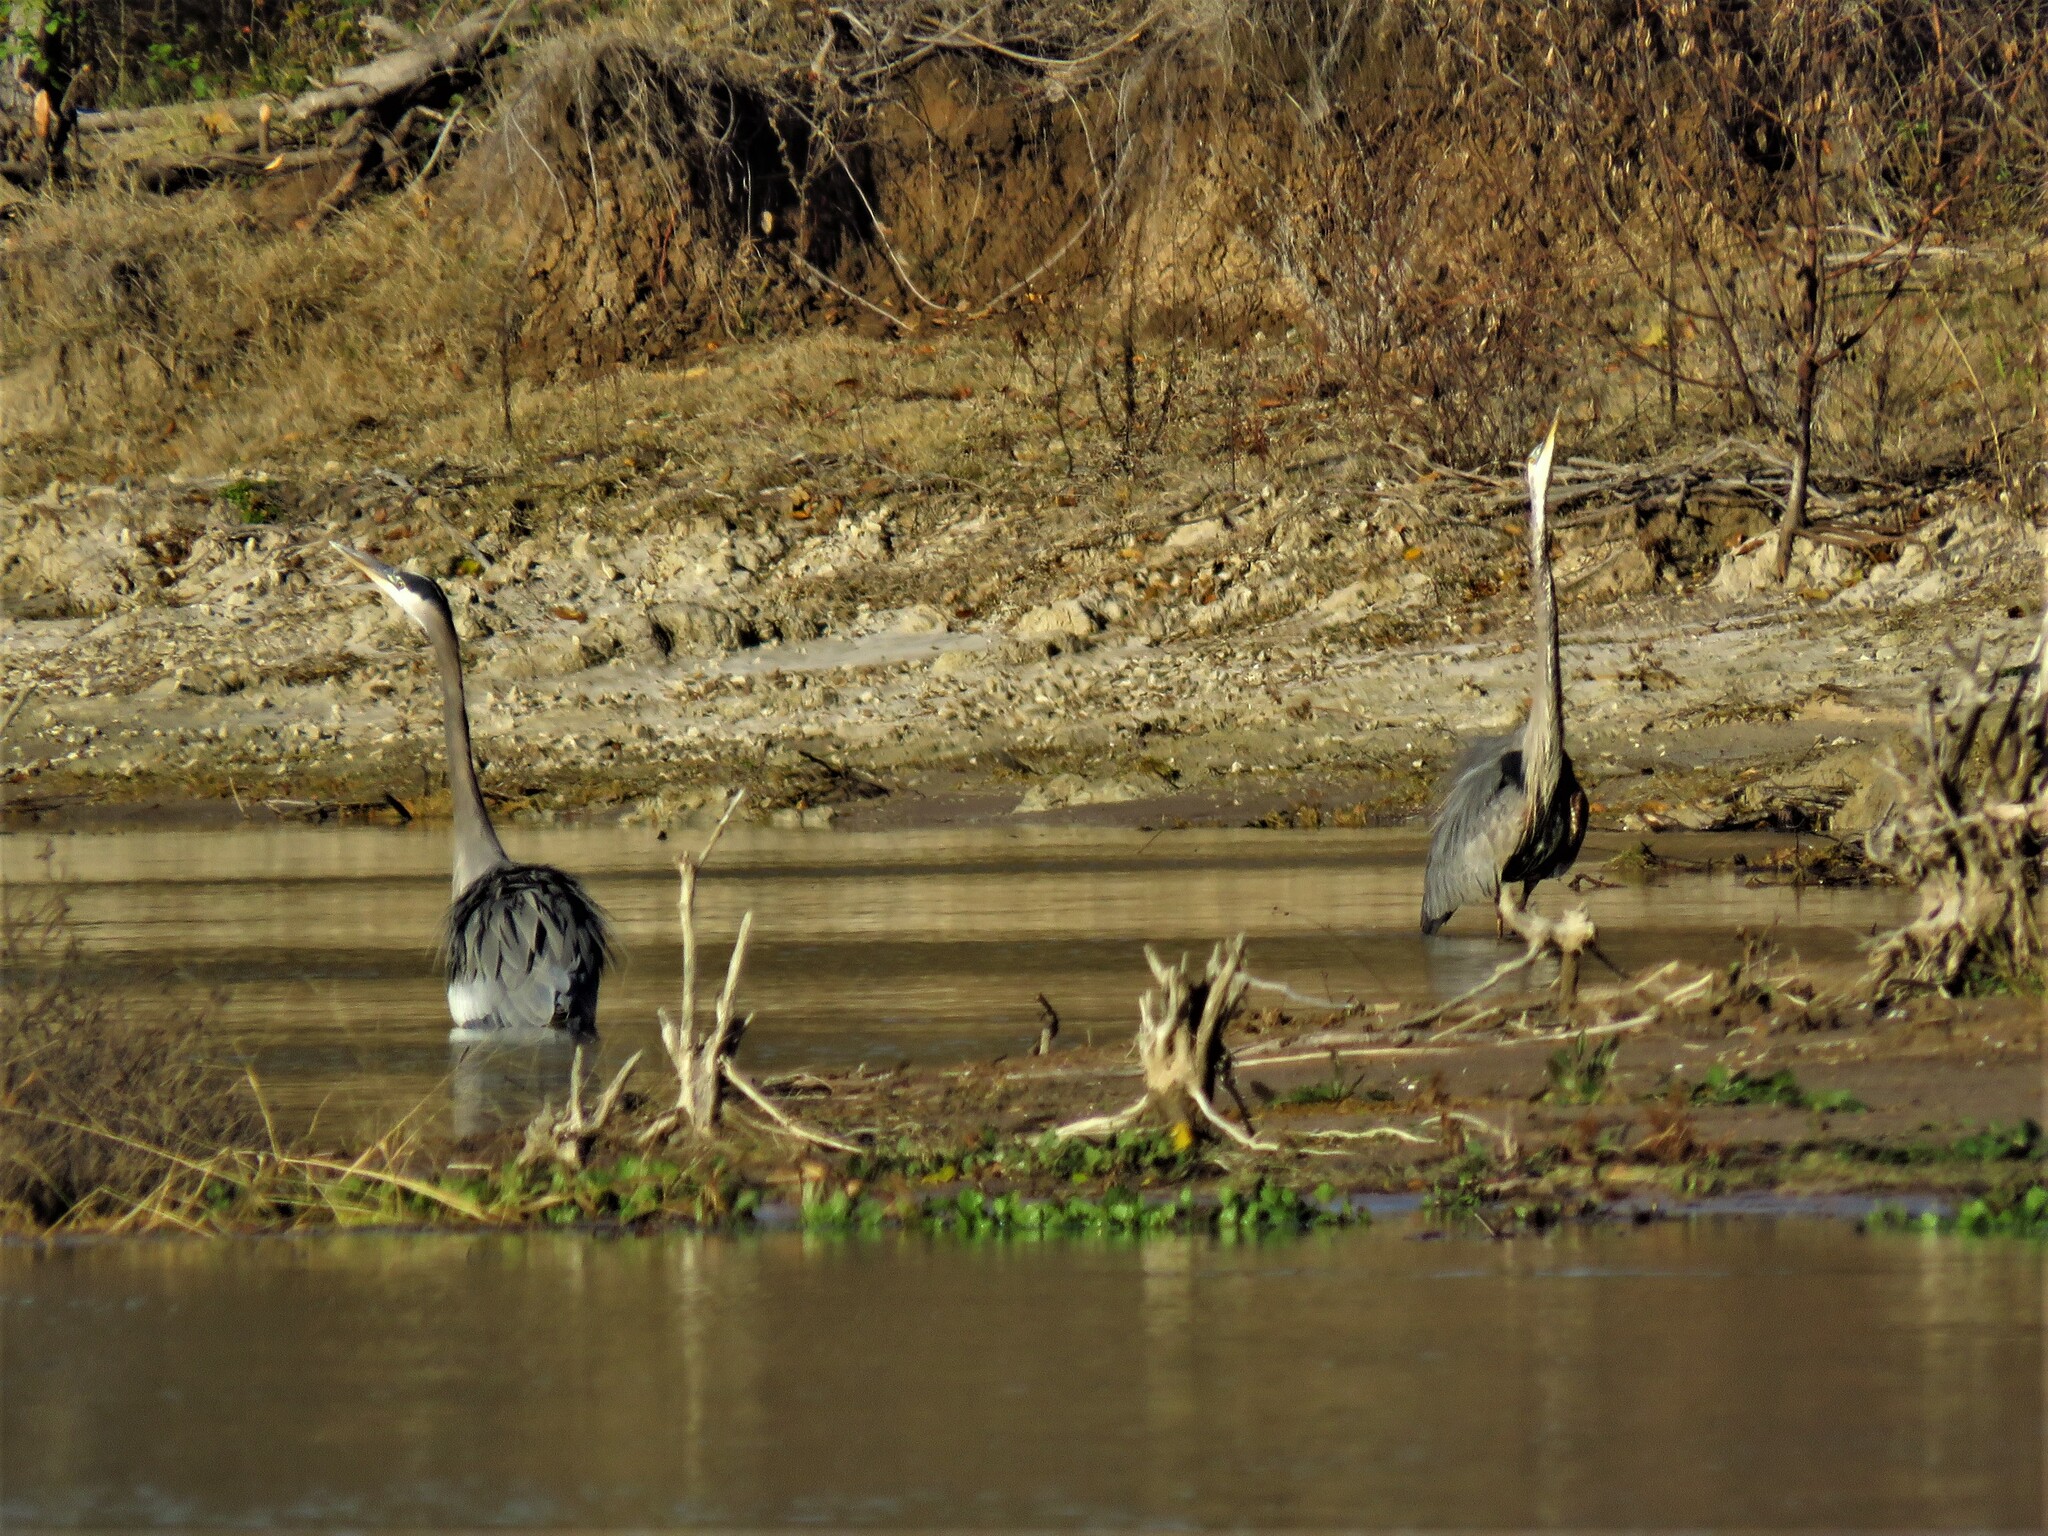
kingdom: Animalia
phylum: Chordata
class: Aves
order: Pelecaniformes
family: Ardeidae
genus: Ardea
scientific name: Ardea herodias
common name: Great blue heron
